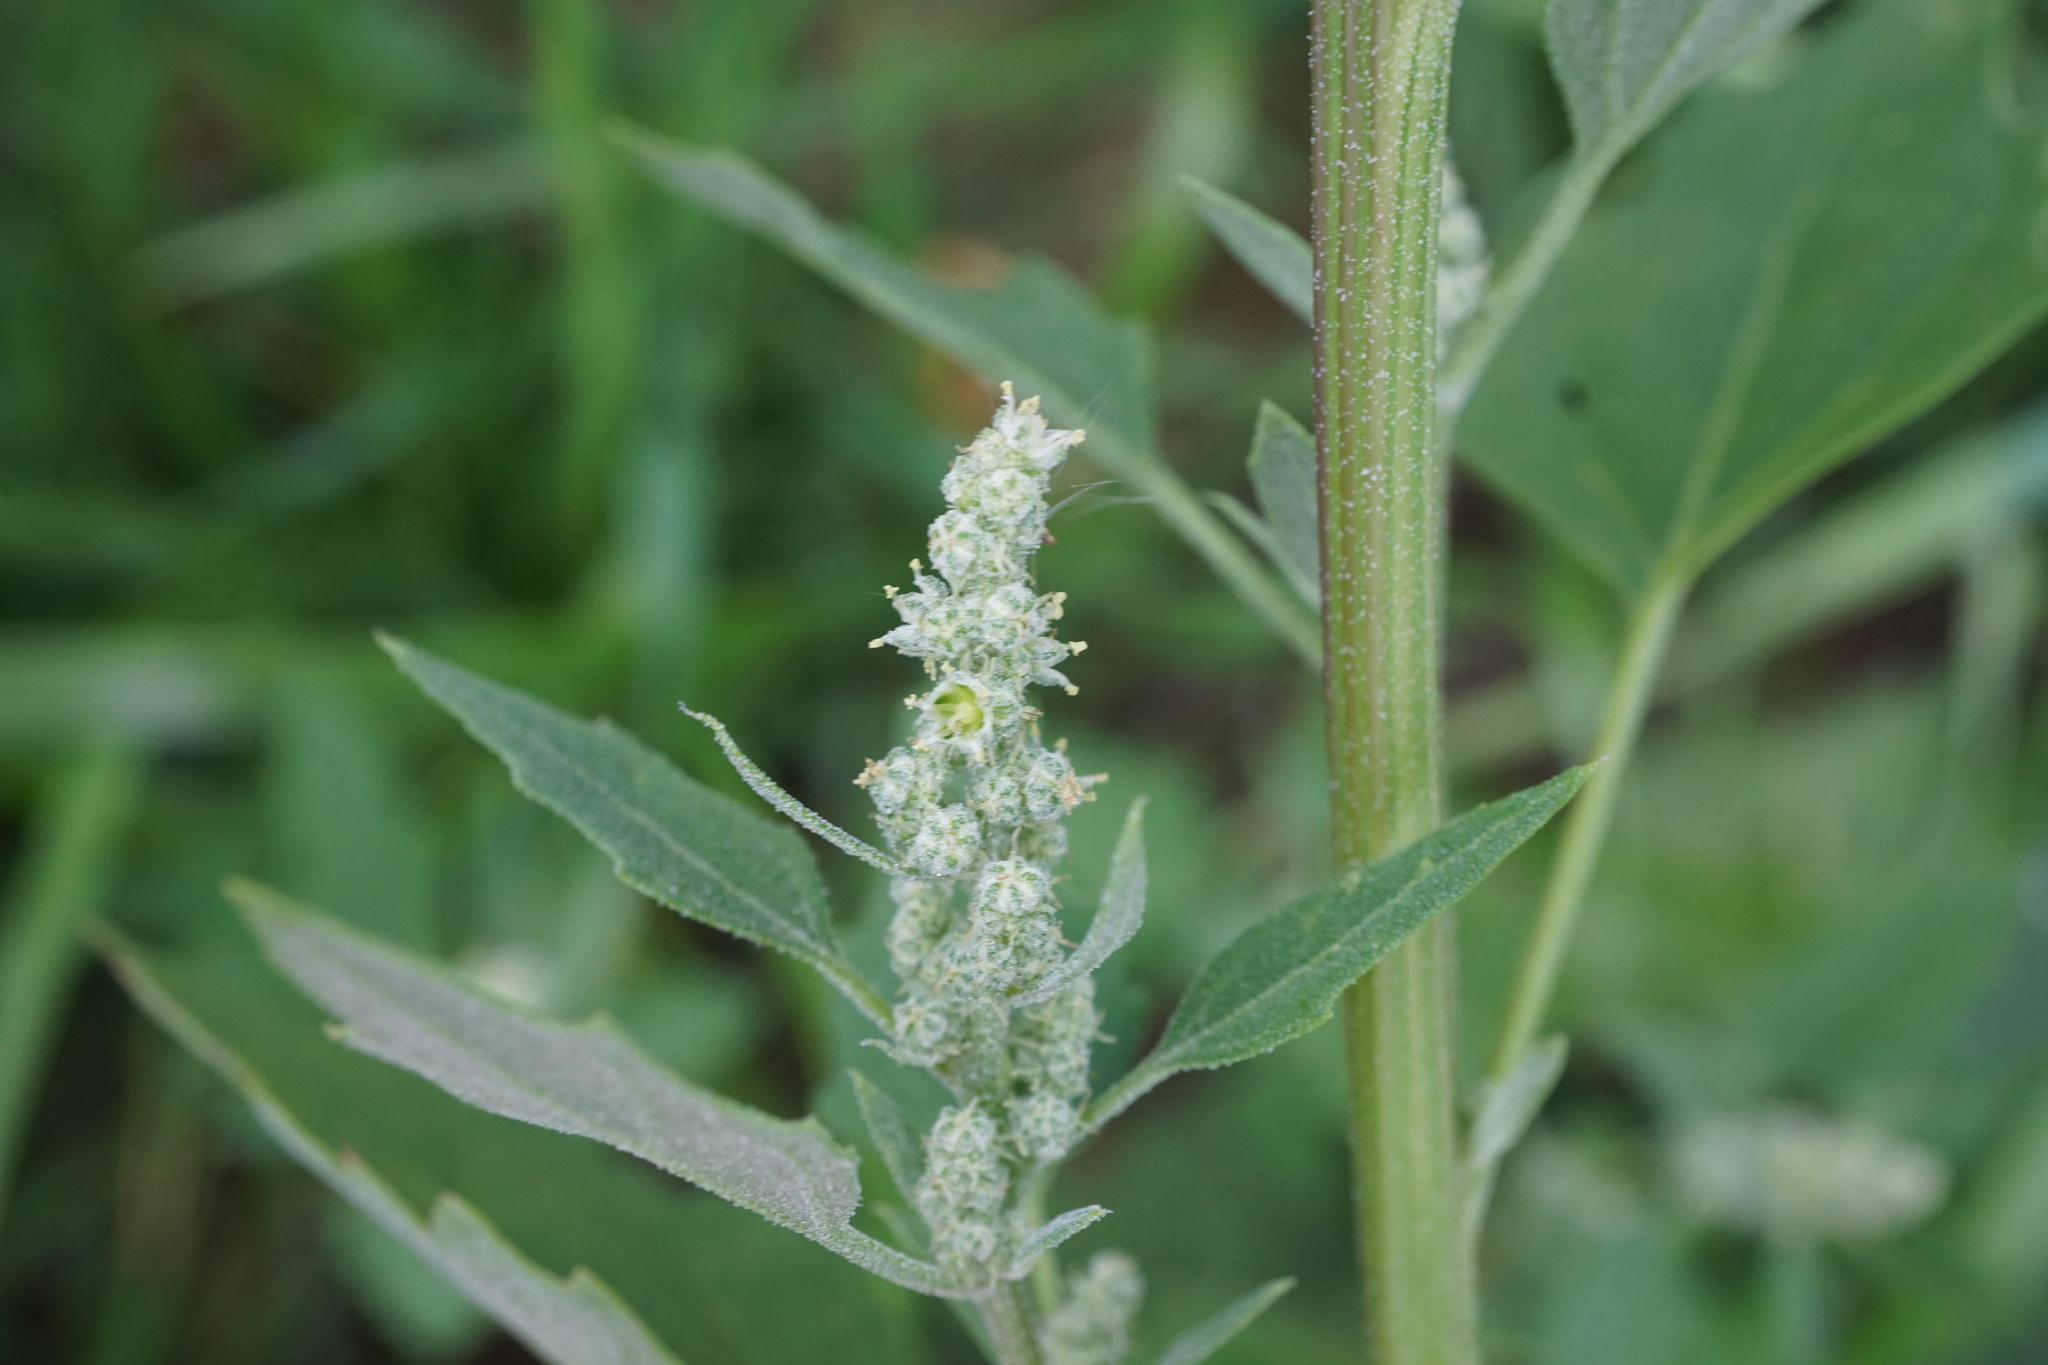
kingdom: Plantae
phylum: Tracheophyta
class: Magnoliopsida
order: Caryophyllales
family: Amaranthaceae
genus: Chenopodium
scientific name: Chenopodium album
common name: Fat-hen
